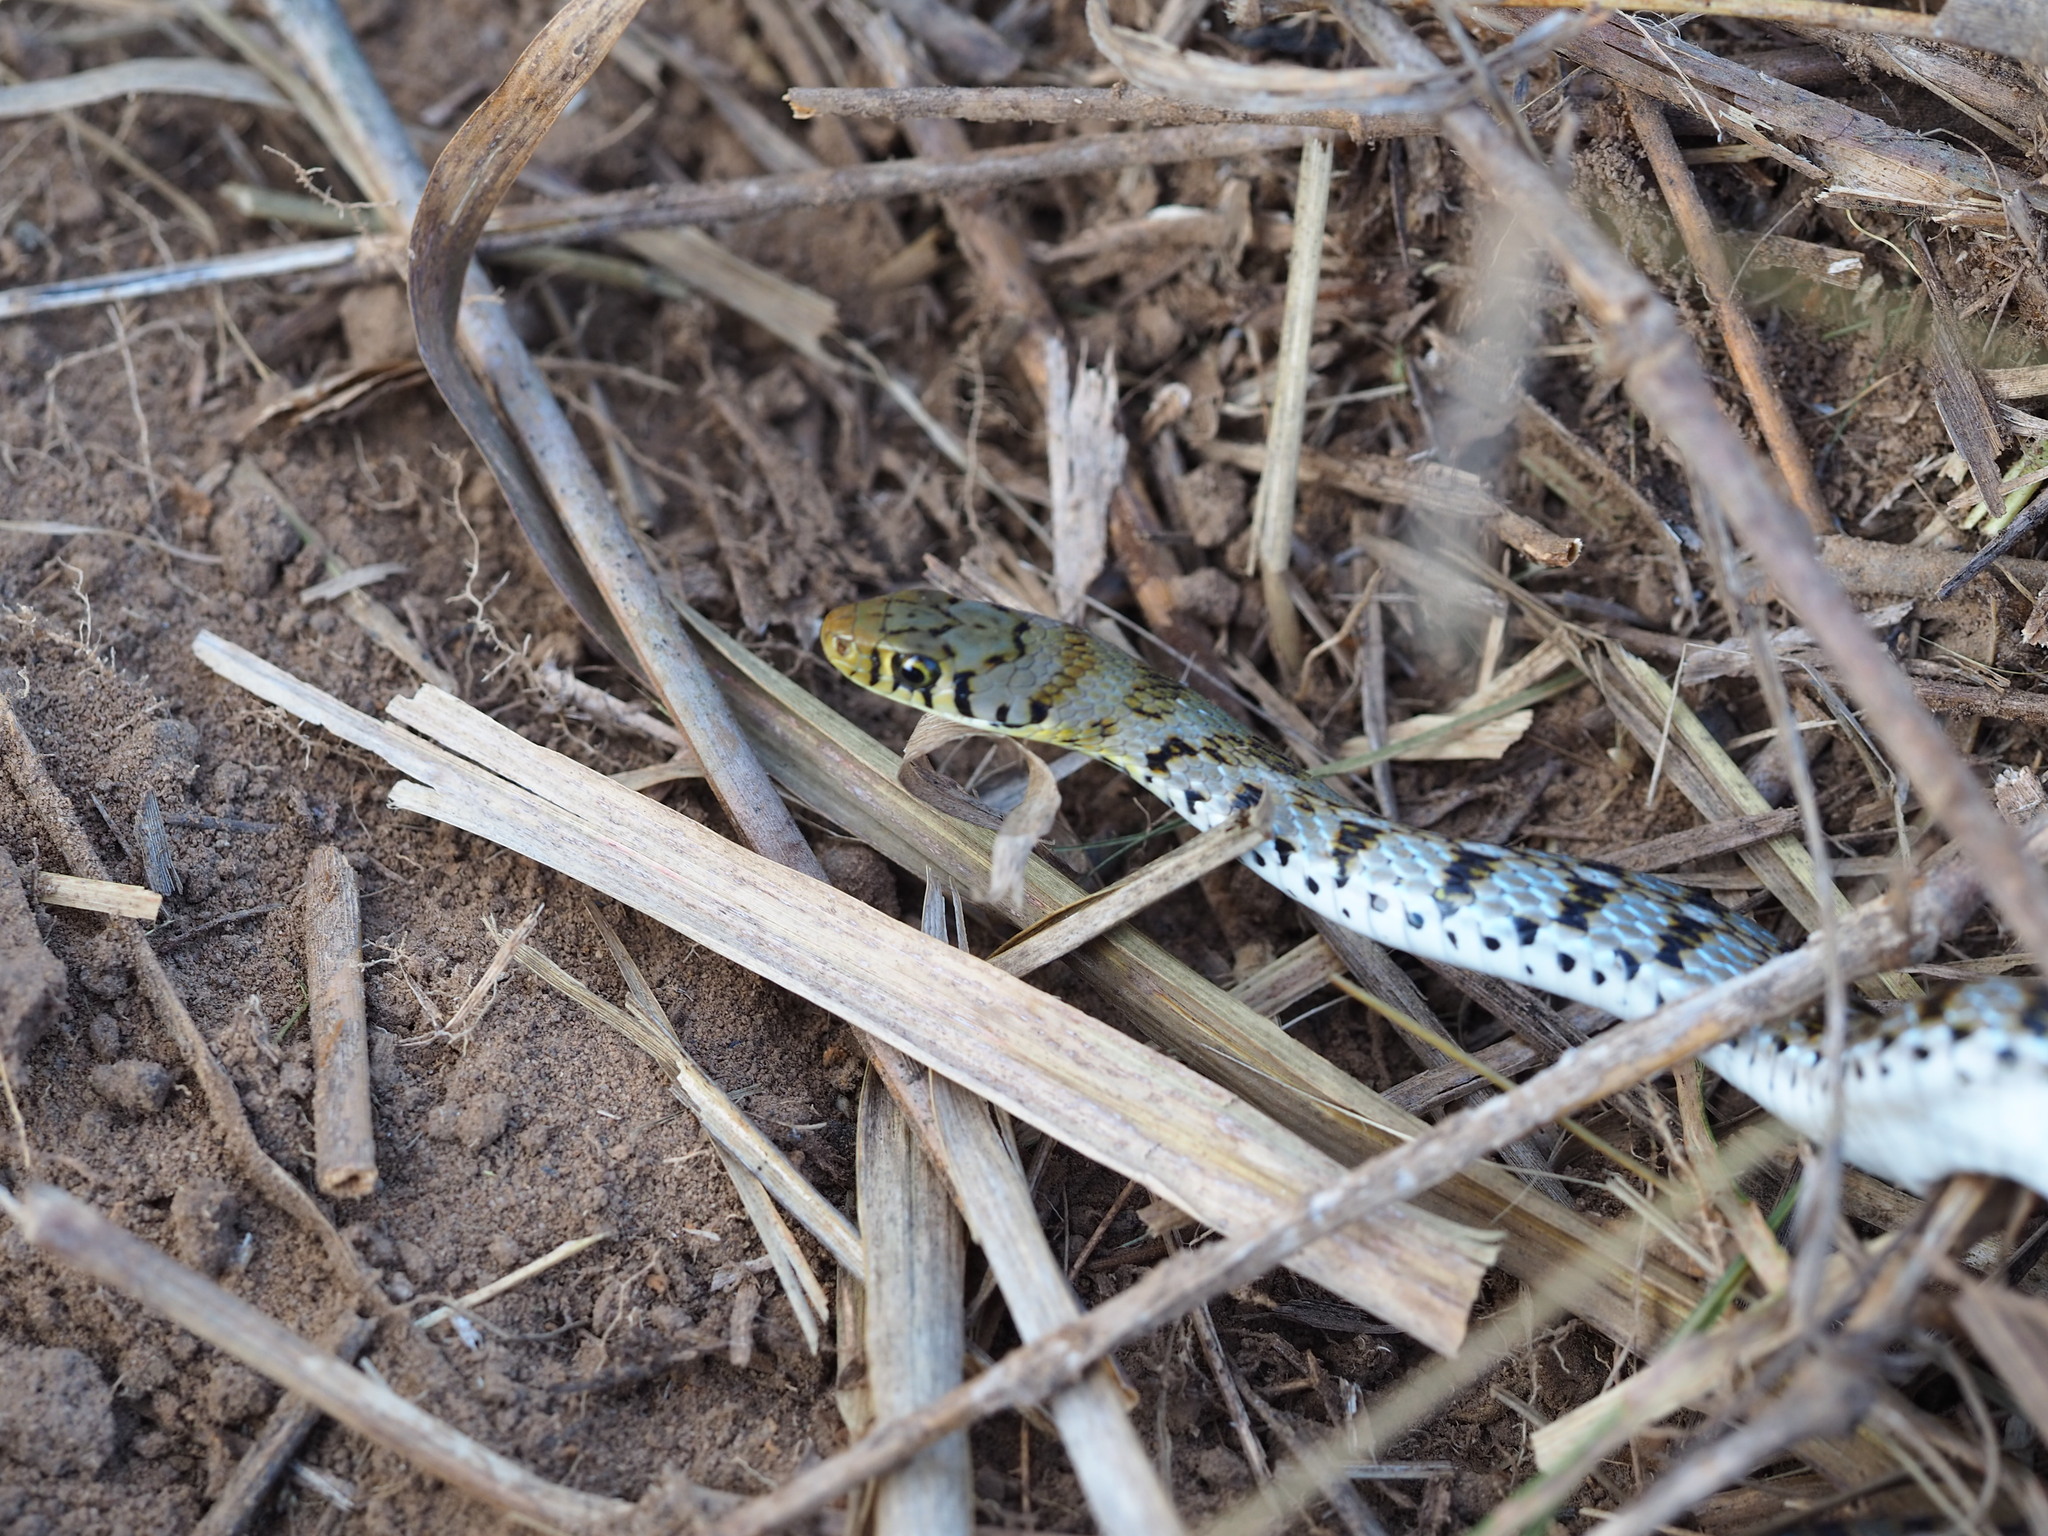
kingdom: Animalia
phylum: Chordata
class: Squamata
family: Colubridae
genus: Amphiesma
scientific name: Amphiesma stolatum
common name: Buff striped keelback
